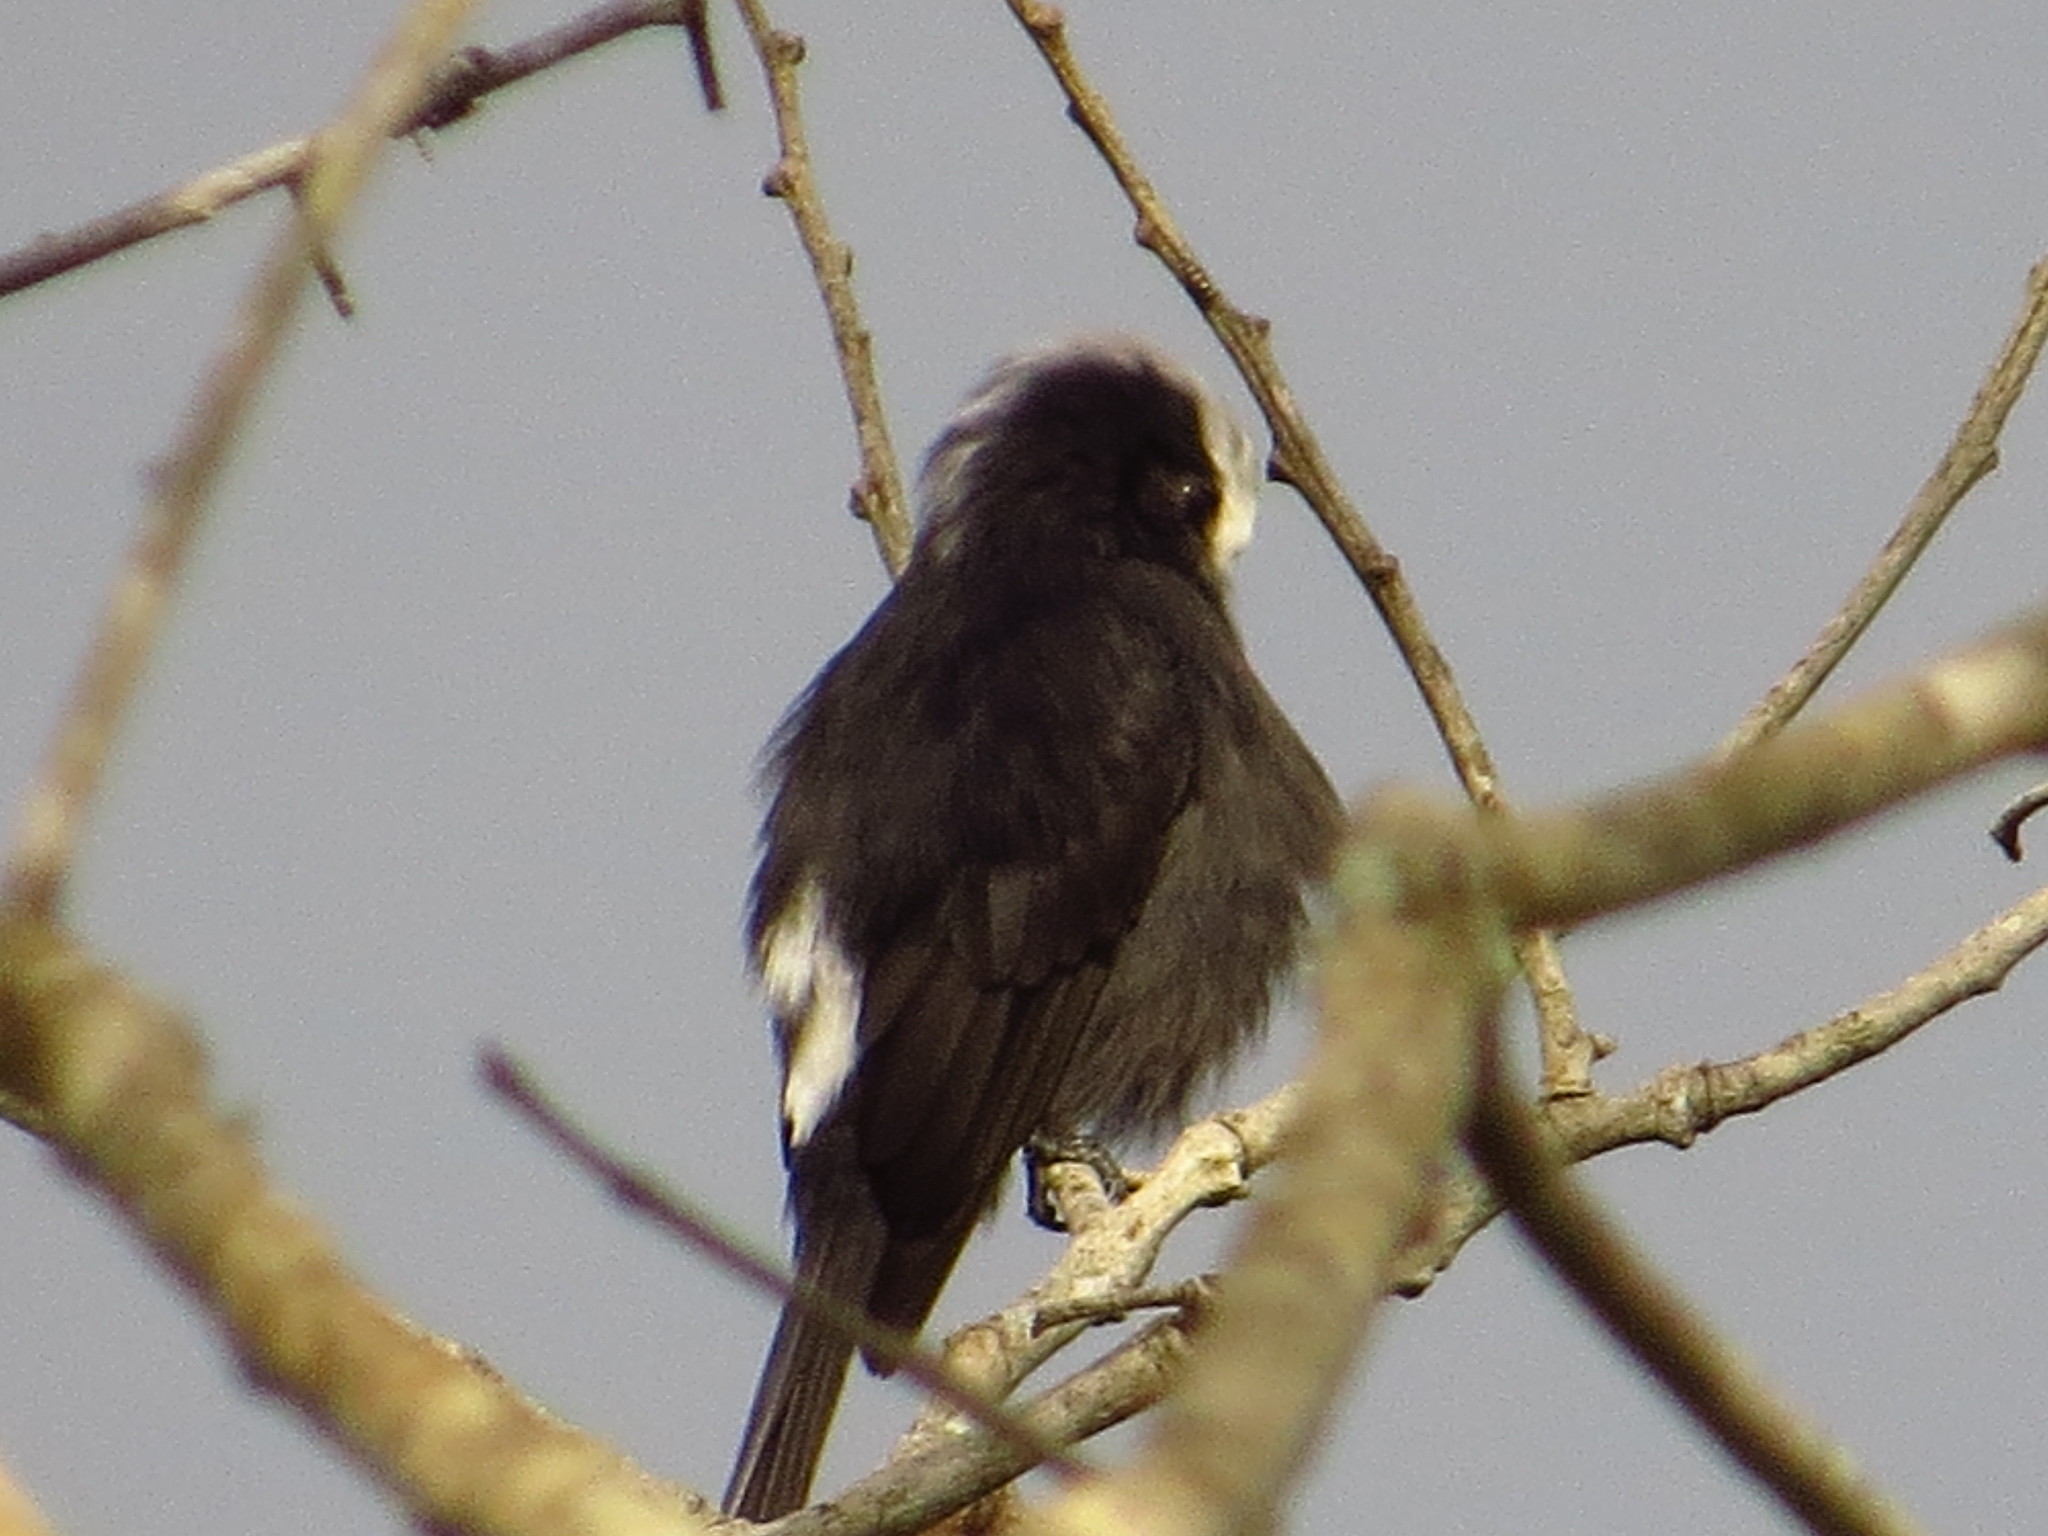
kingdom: Animalia
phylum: Chordata
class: Aves
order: Passeriformes
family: Tyrannidae
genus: Colonia
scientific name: Colonia colonus
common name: Long-tailed tyrant
